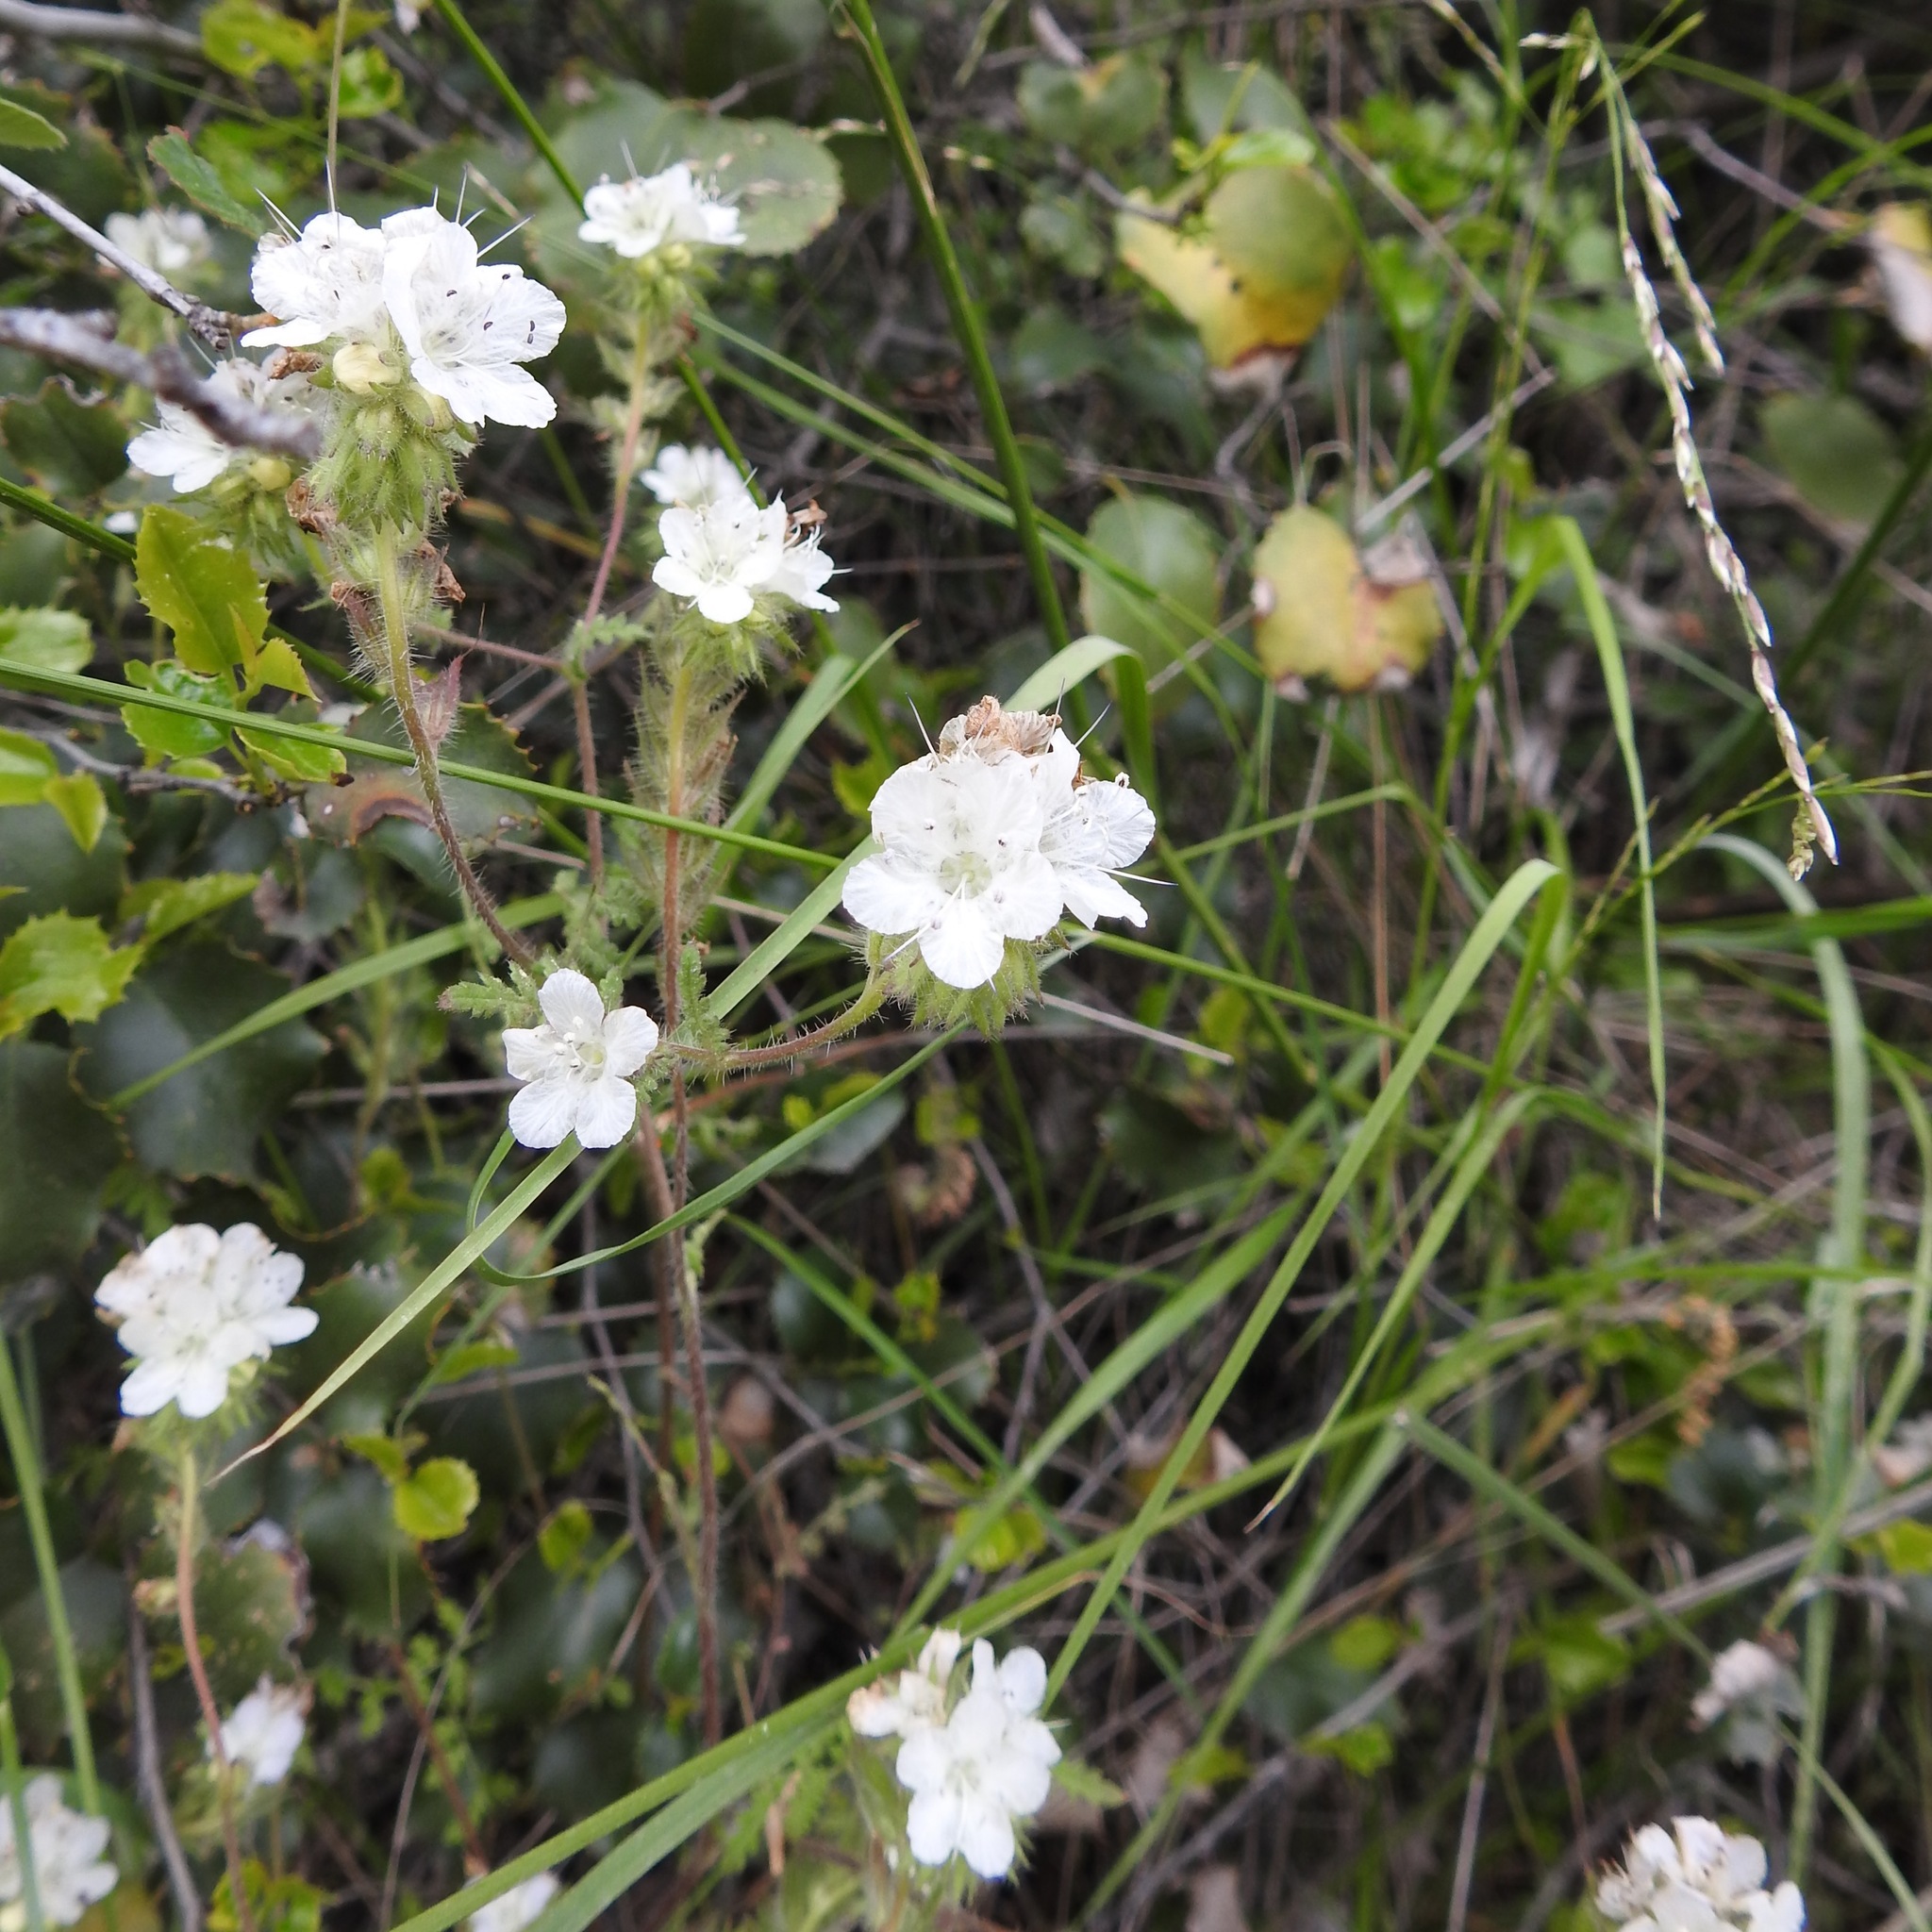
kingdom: Plantae
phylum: Tracheophyta
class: Magnoliopsida
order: Boraginales
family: Hydrophyllaceae
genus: Phacelia
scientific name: Phacelia distans
